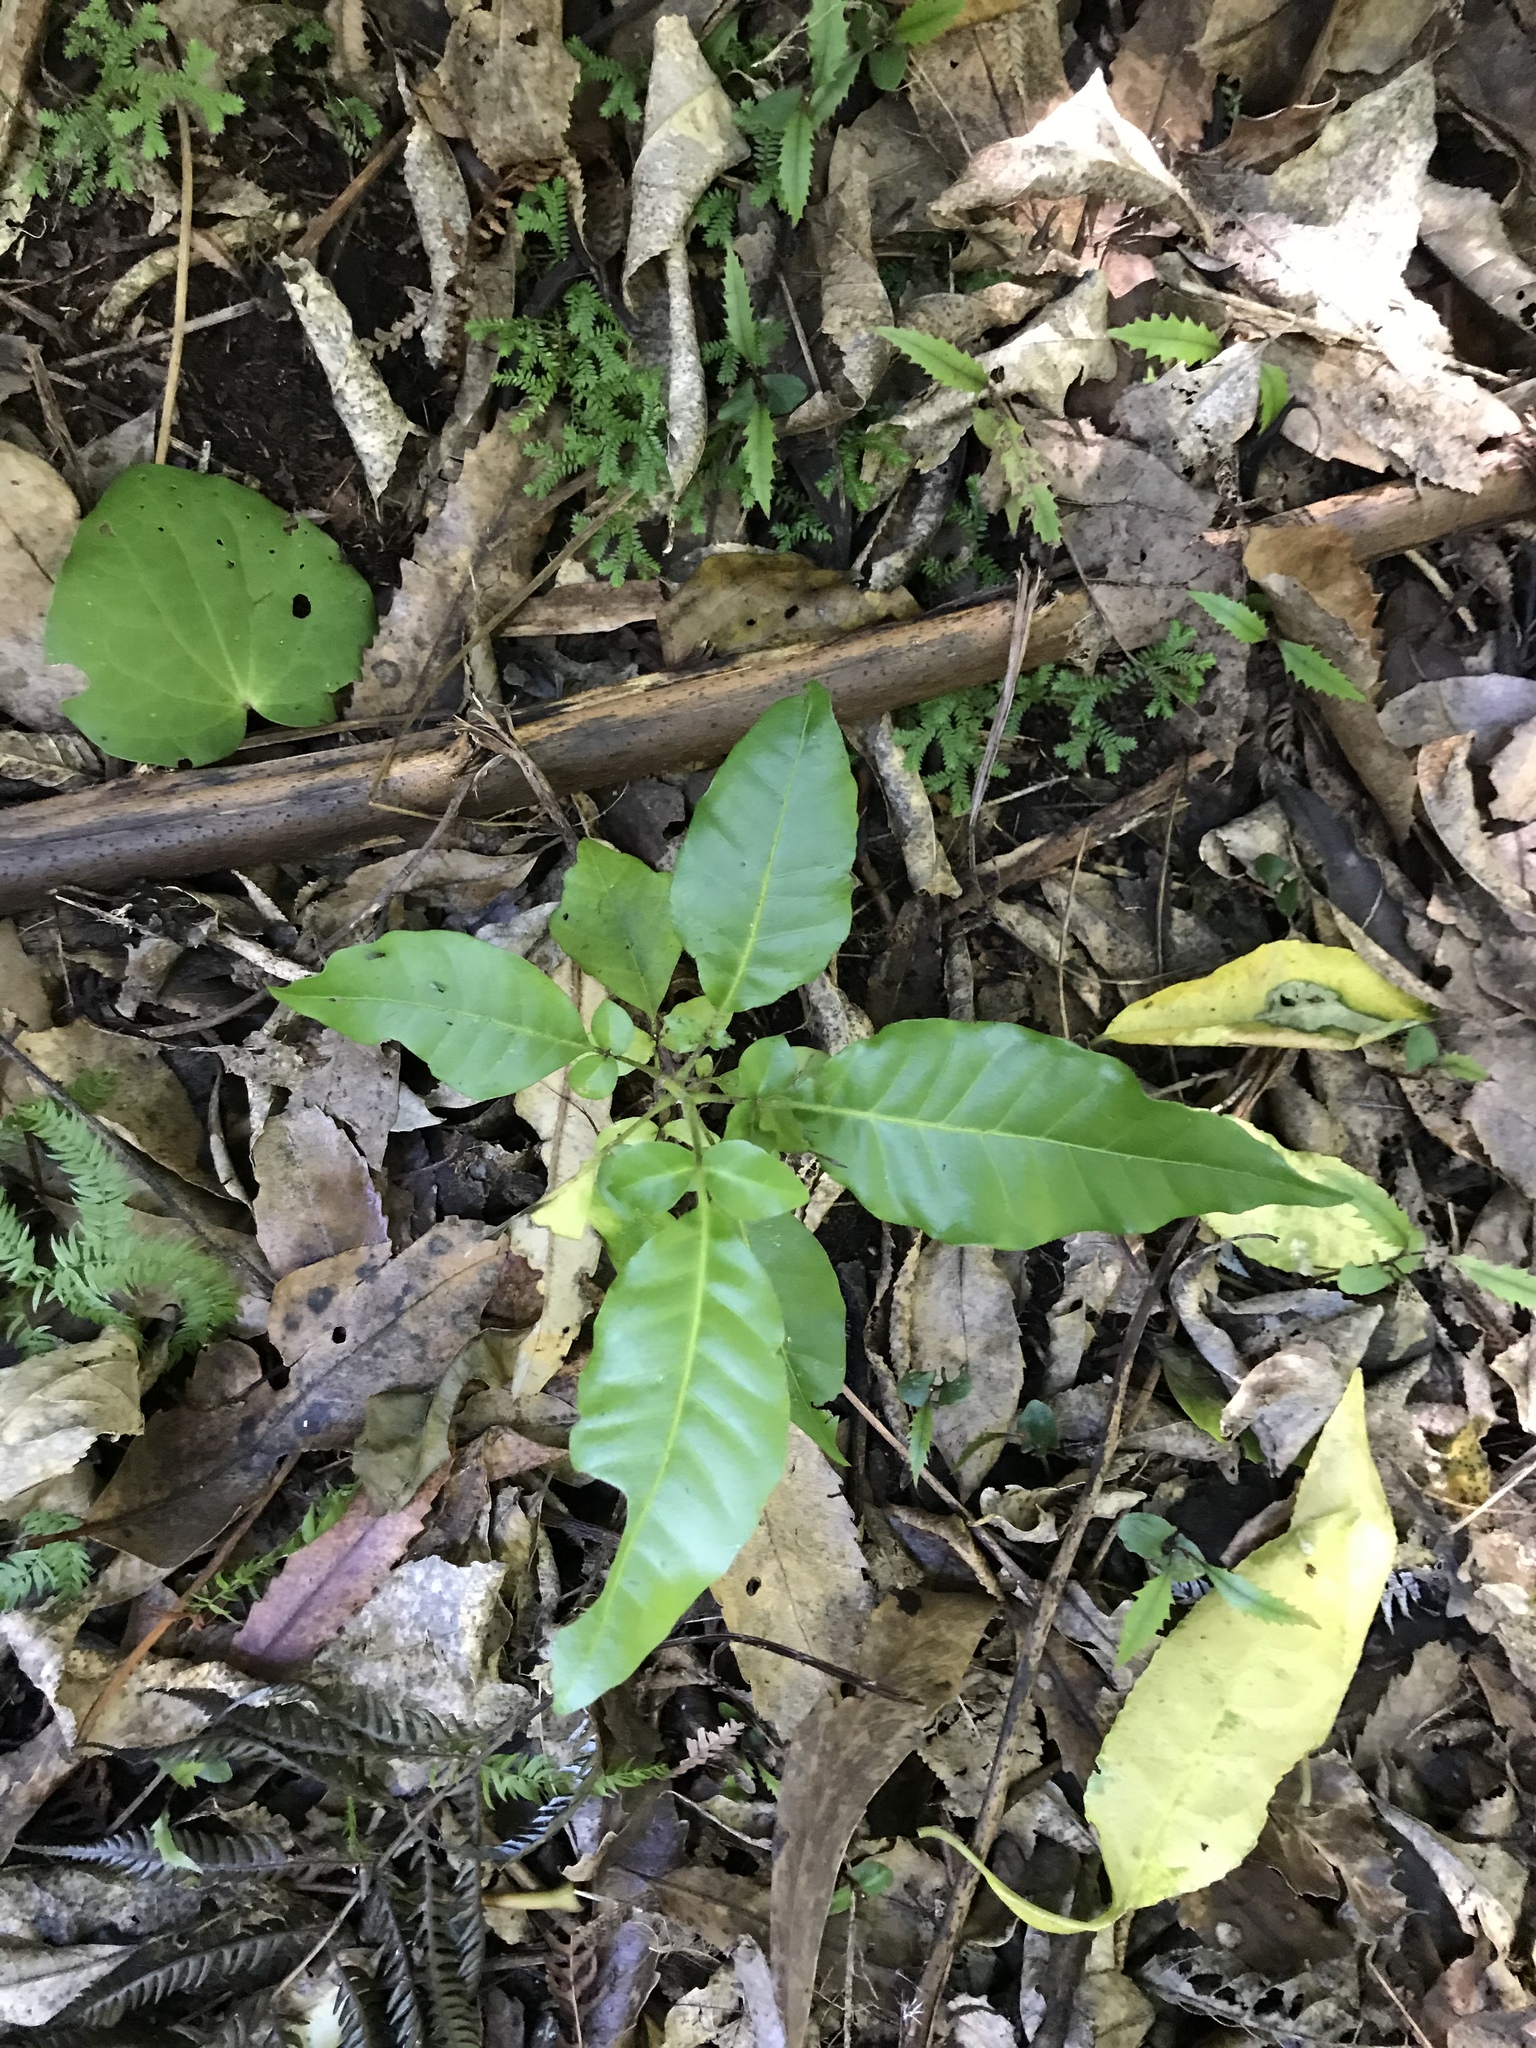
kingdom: Plantae
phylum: Tracheophyta
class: Magnoliopsida
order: Sapindales
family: Meliaceae
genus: Didymocheton
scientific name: Didymocheton spectabilis
